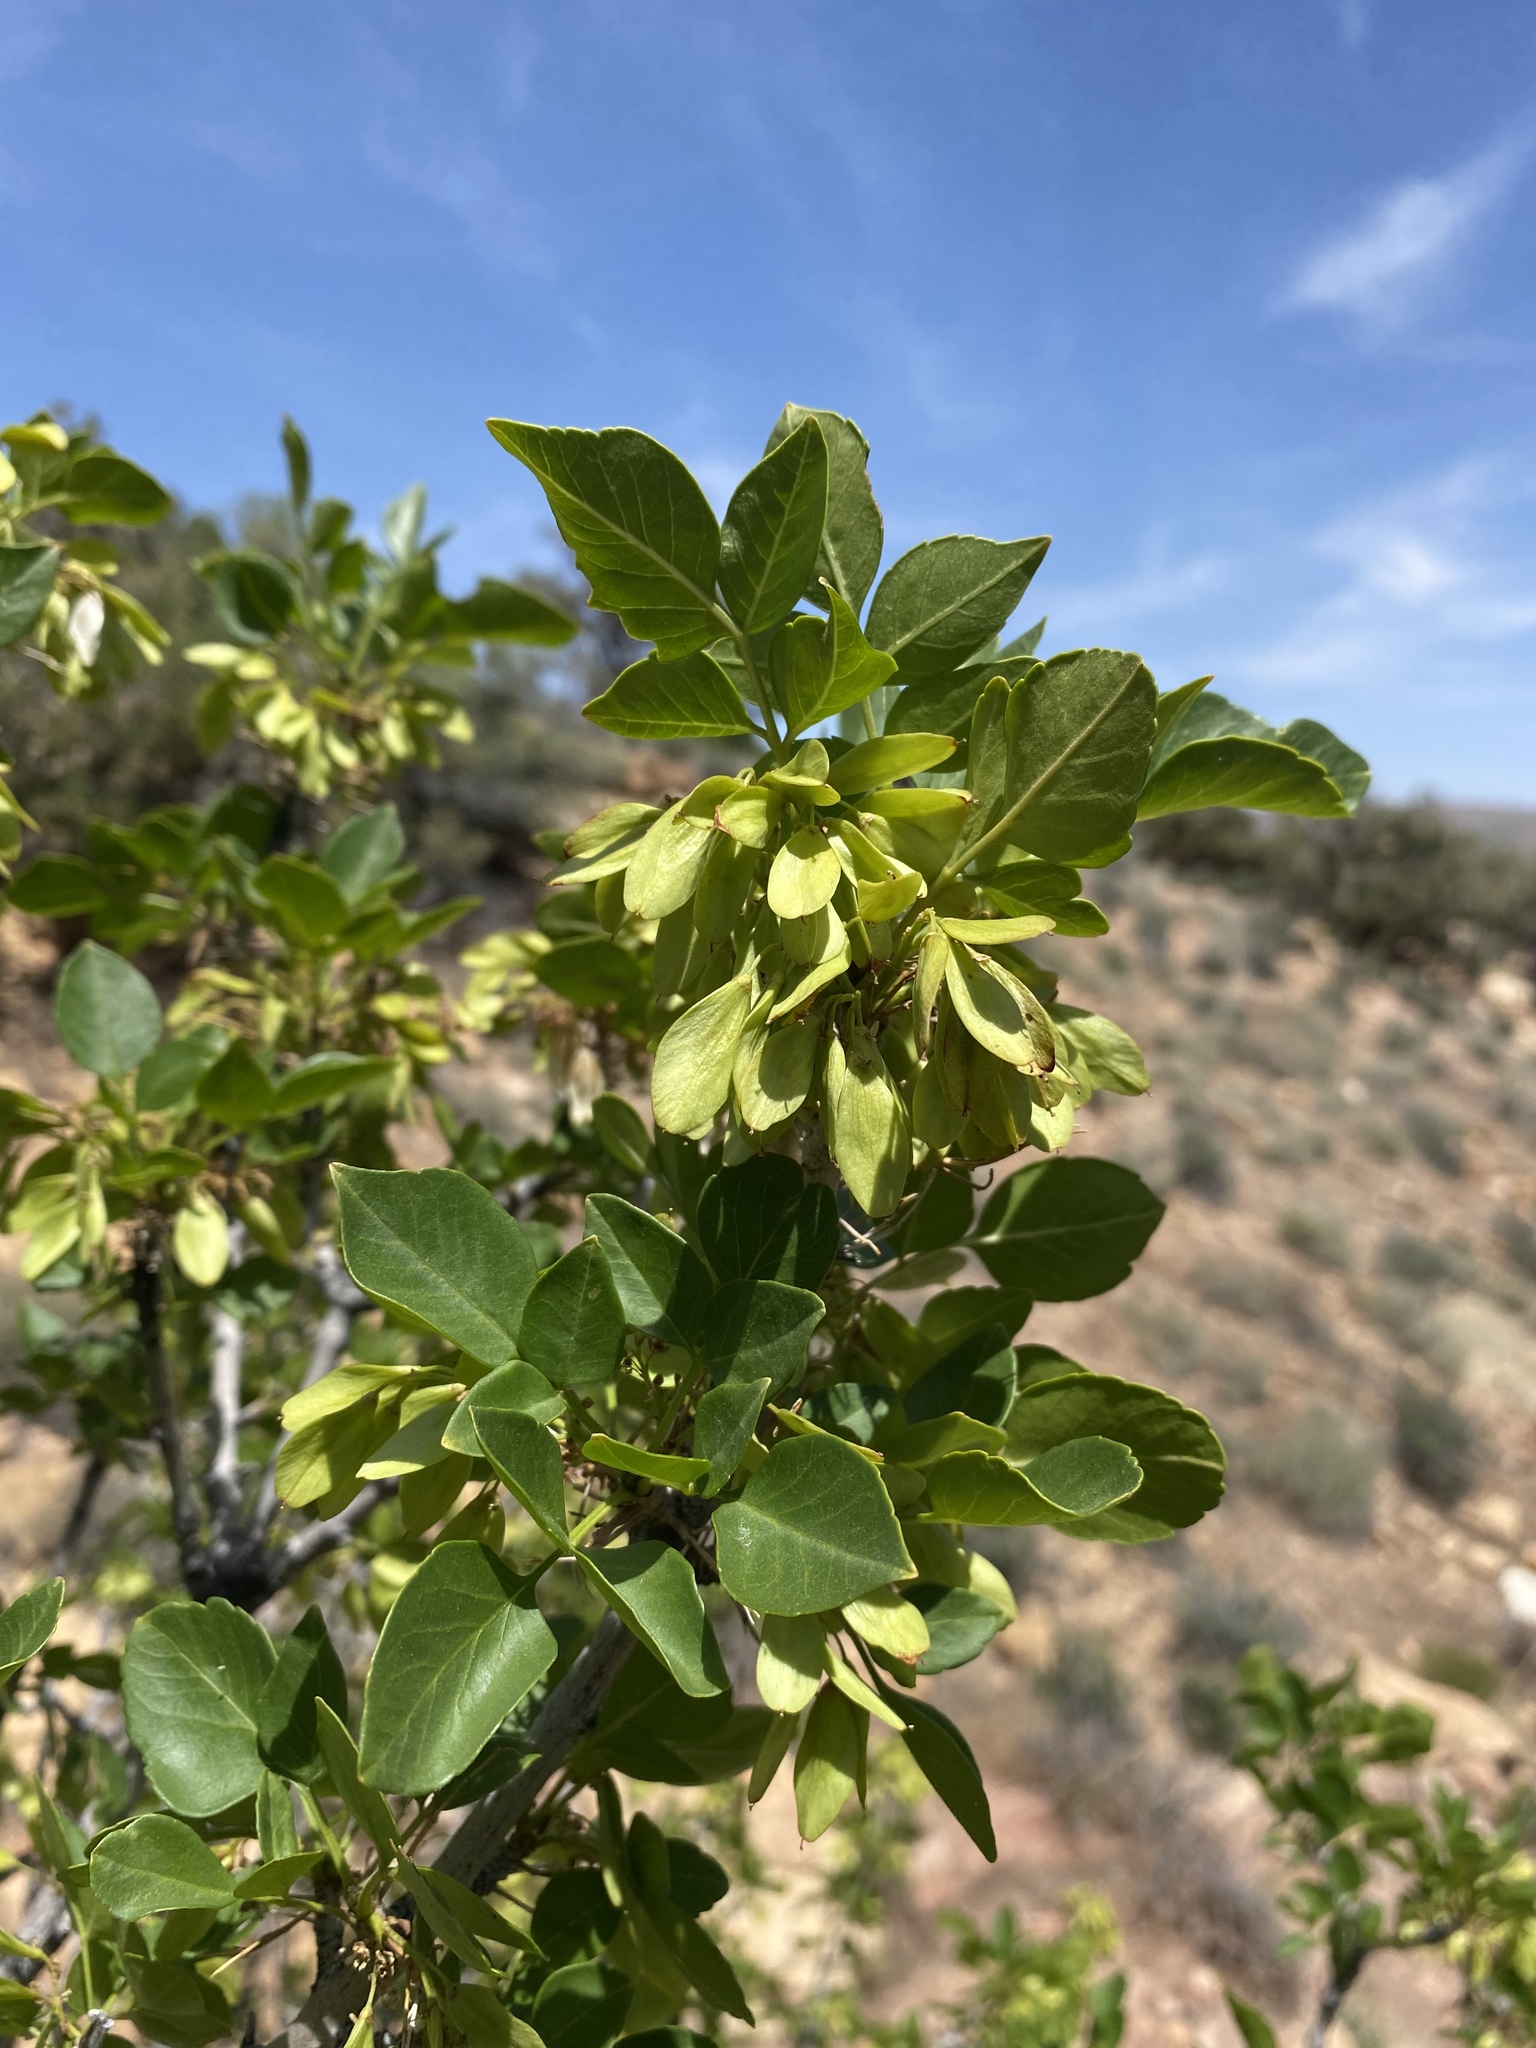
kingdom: Plantae
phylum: Tracheophyta
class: Magnoliopsida
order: Lamiales
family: Oleaceae
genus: Fraxinus
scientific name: Fraxinus anomala
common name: Utah ash
